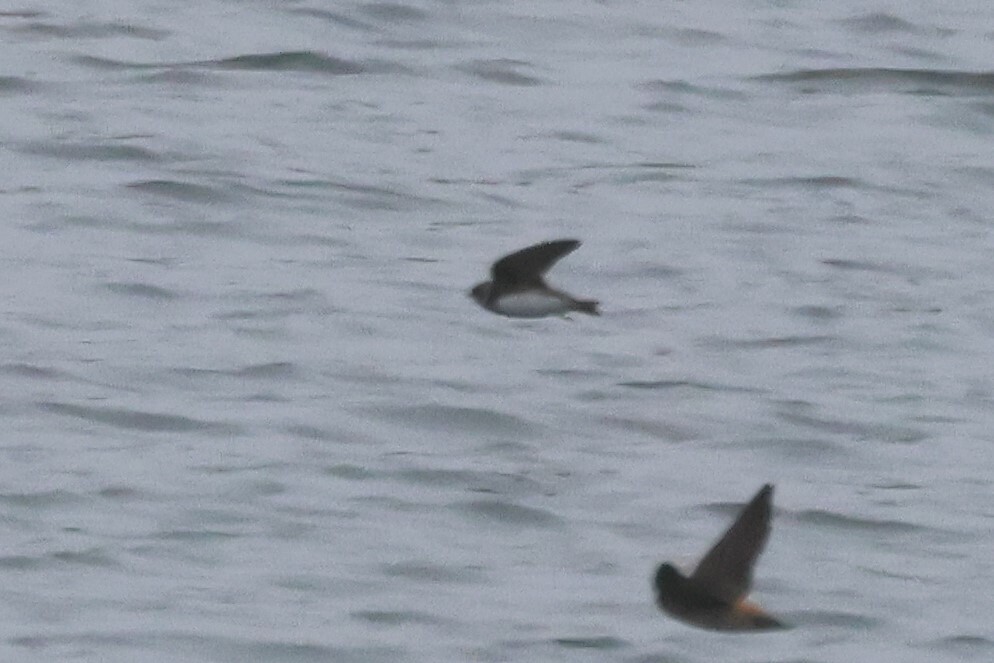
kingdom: Animalia
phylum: Chordata
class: Aves
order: Passeriformes
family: Hirundinidae
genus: Riparia
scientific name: Riparia riparia
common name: Sand martin
